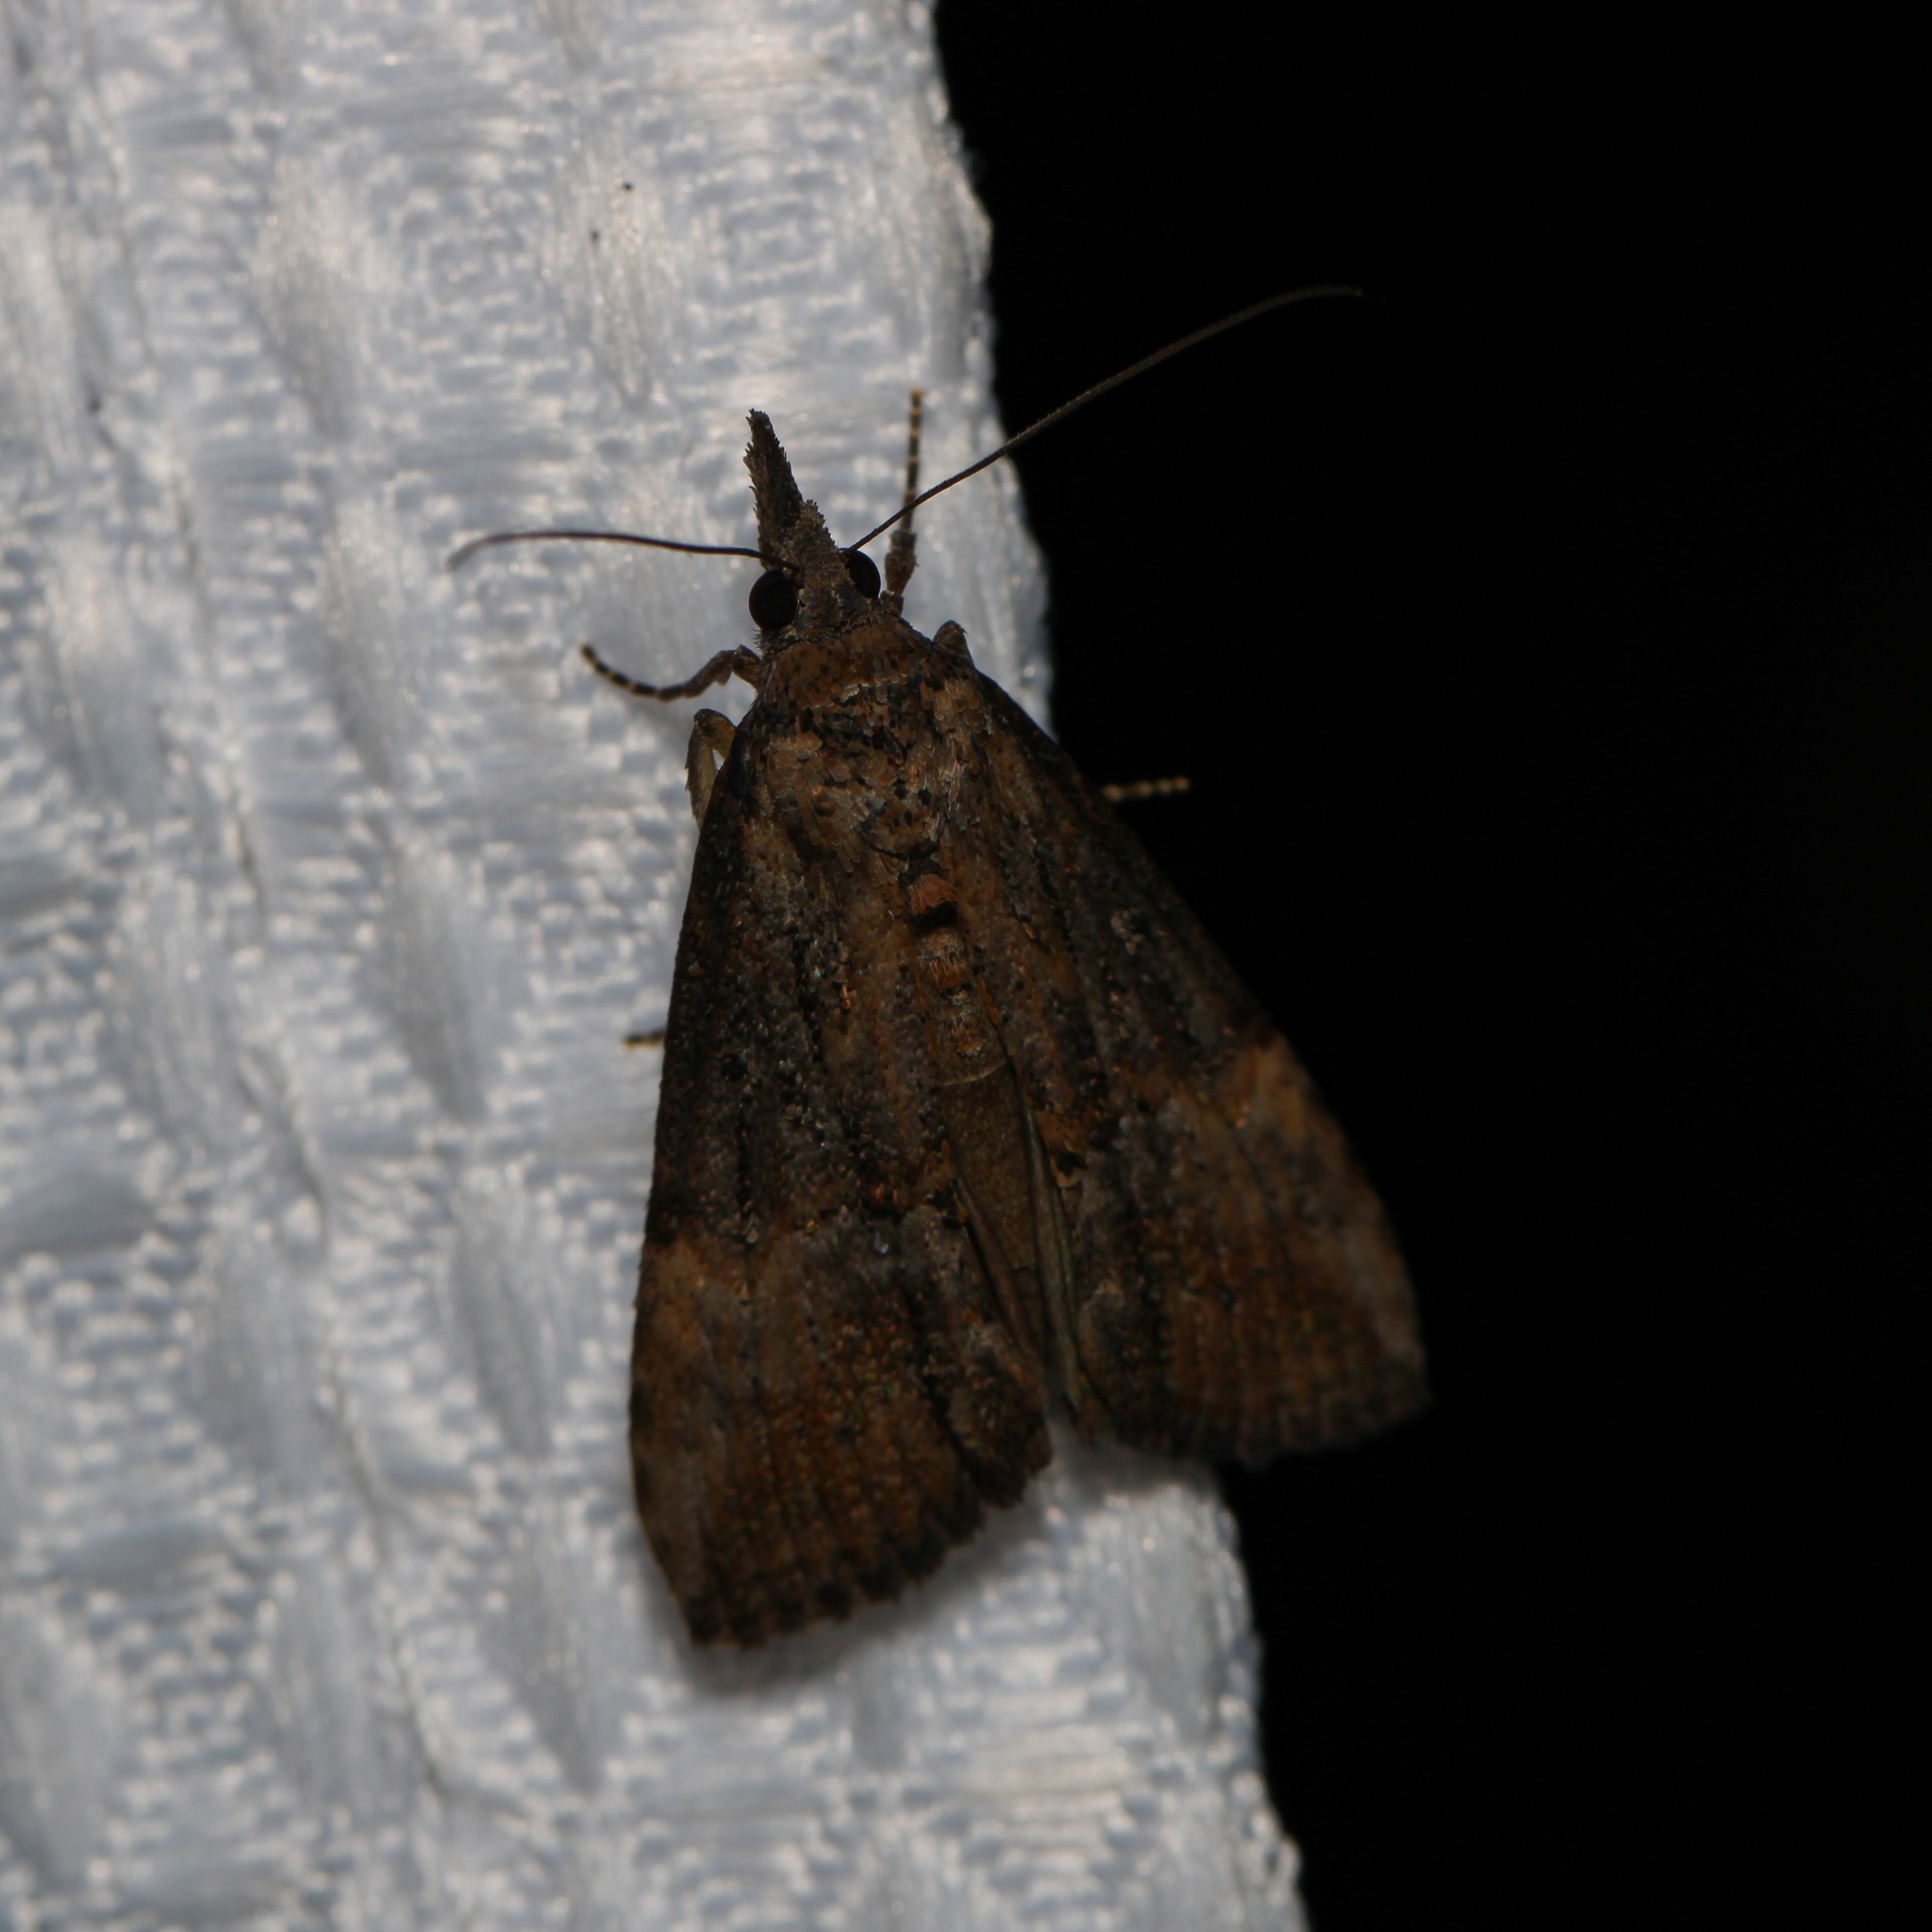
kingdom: Animalia
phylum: Arthropoda
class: Insecta
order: Lepidoptera
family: Erebidae
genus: Hypena
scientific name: Hypena scabra
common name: Green cloverworm
